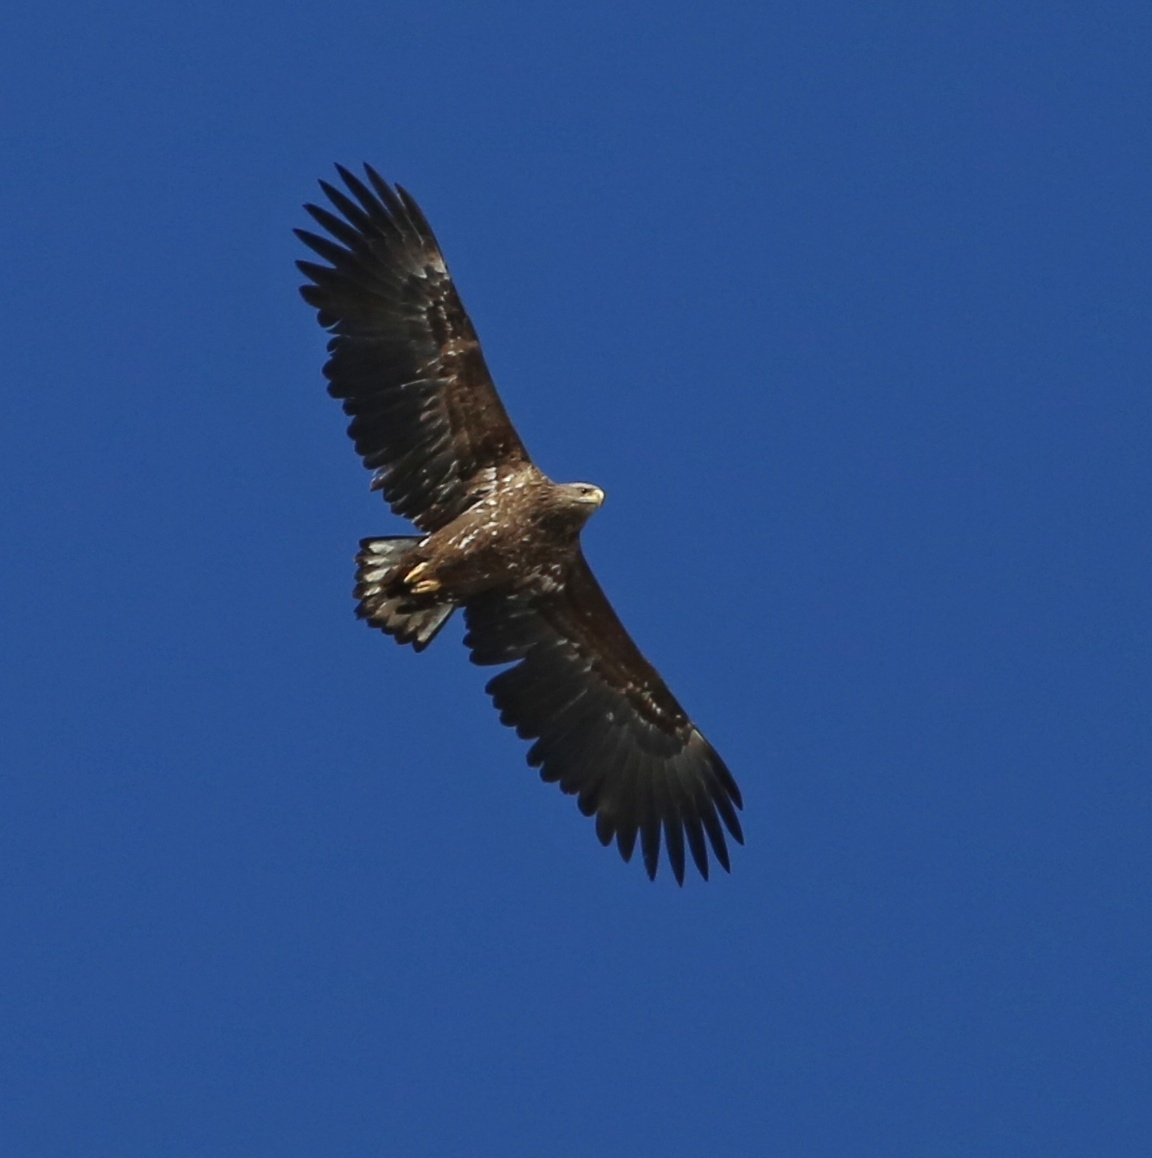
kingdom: Animalia
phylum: Chordata
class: Aves
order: Accipitriformes
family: Accipitridae
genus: Haliaeetus
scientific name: Haliaeetus albicilla
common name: White-tailed eagle
